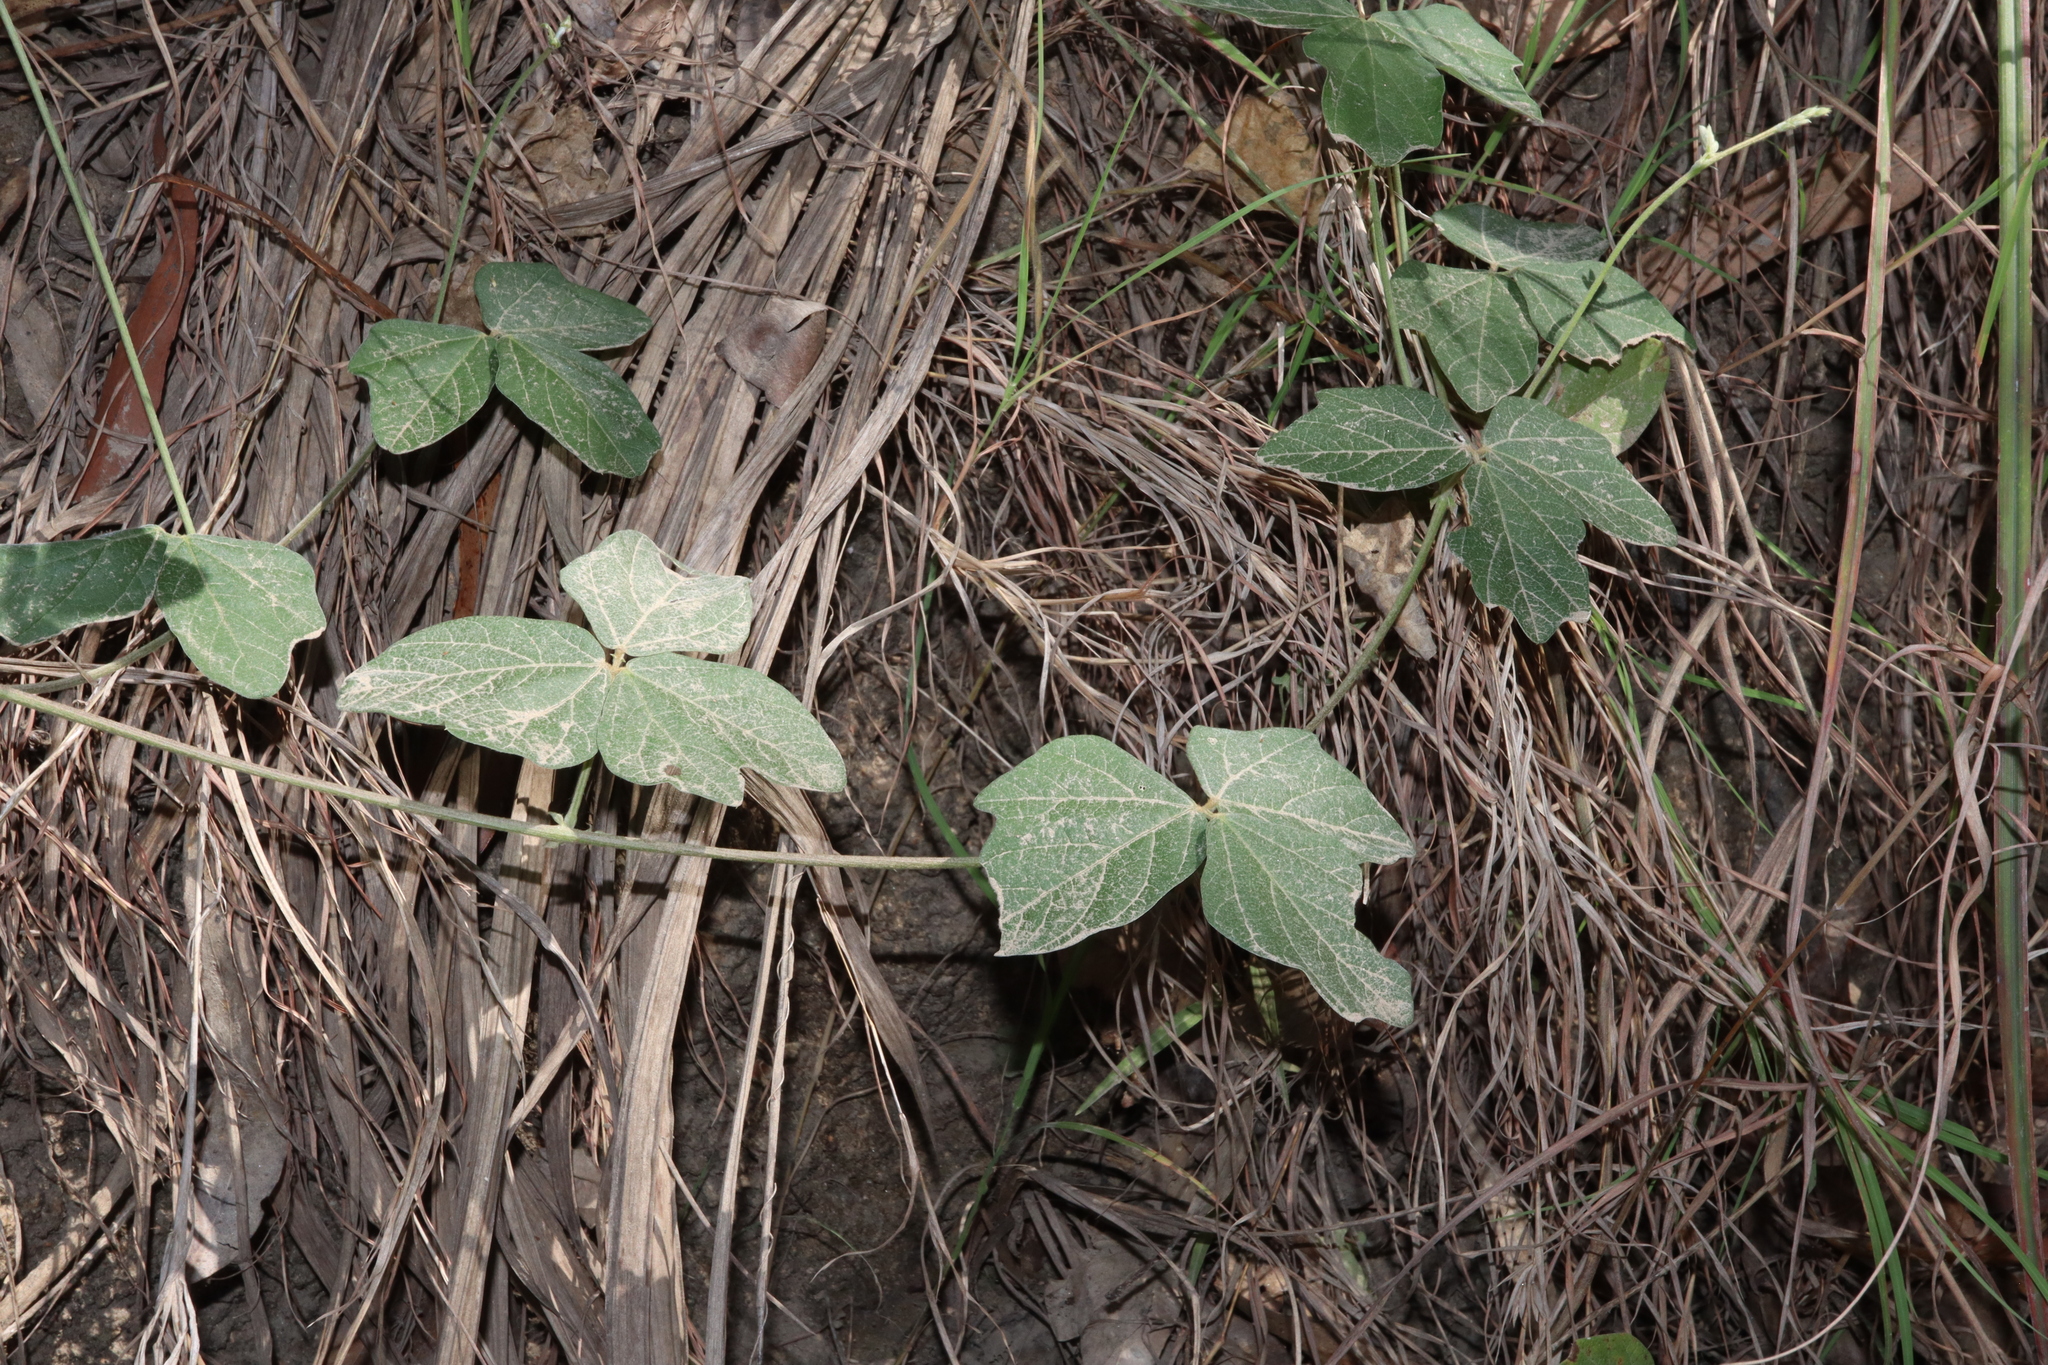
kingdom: Plantae
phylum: Tracheophyta
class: Magnoliopsida
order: Fabales
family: Fabaceae
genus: Macroptilium
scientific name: Macroptilium atropurpureum
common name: Purple bushbean
